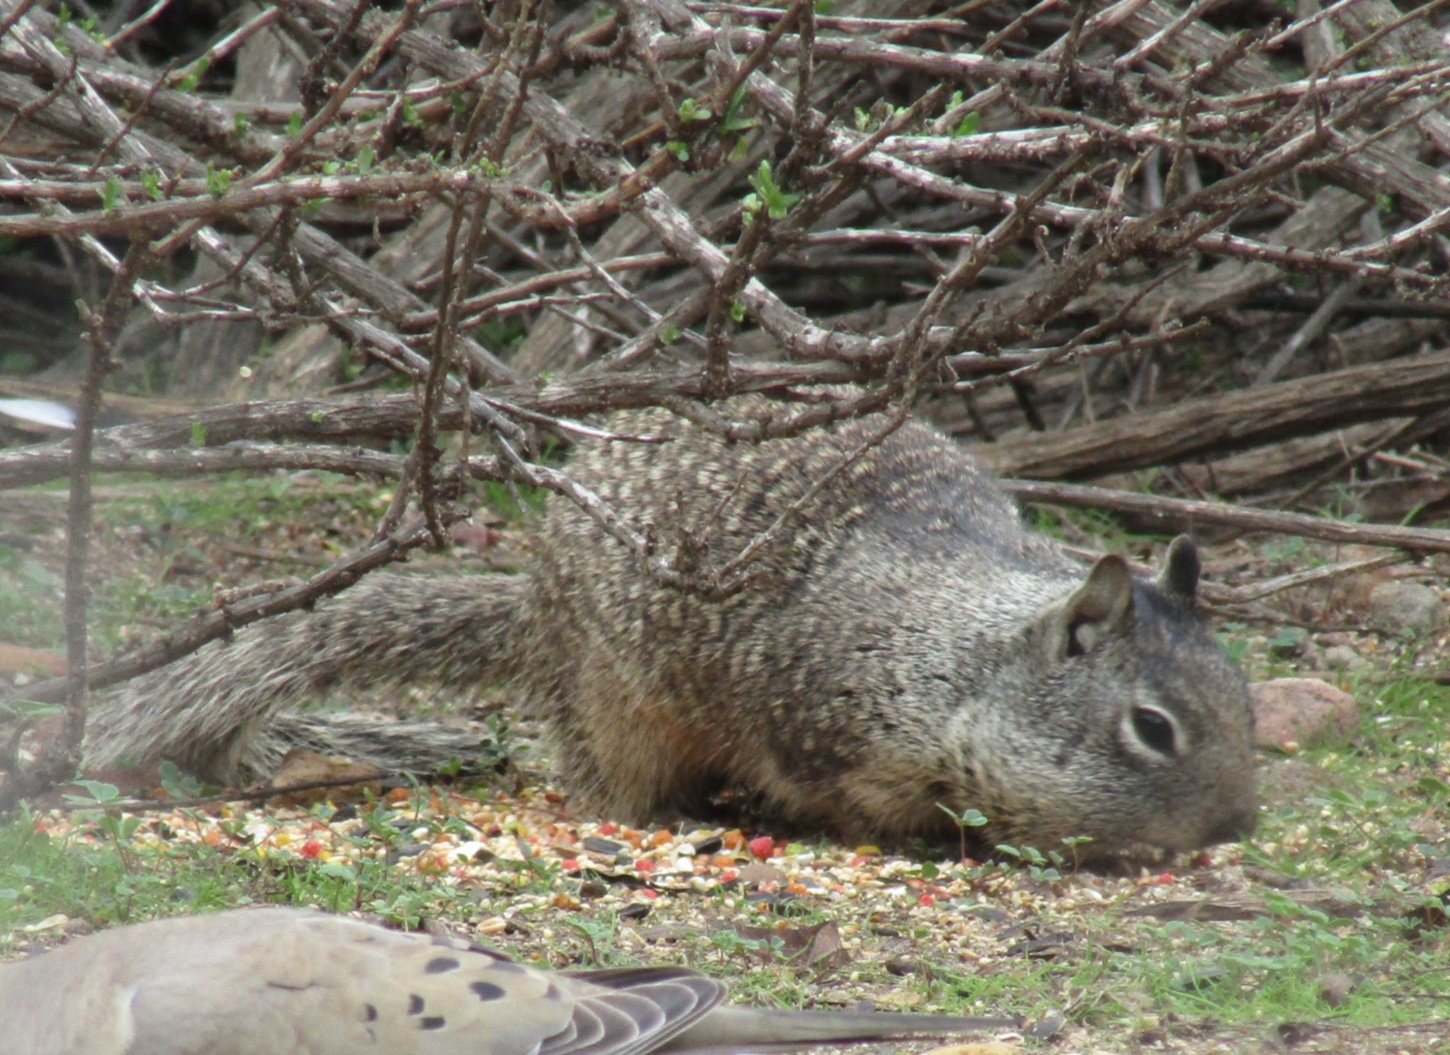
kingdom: Animalia
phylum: Chordata
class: Mammalia
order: Rodentia
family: Sciuridae
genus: Otospermophilus
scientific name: Otospermophilus beecheyi
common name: California ground squirrel
